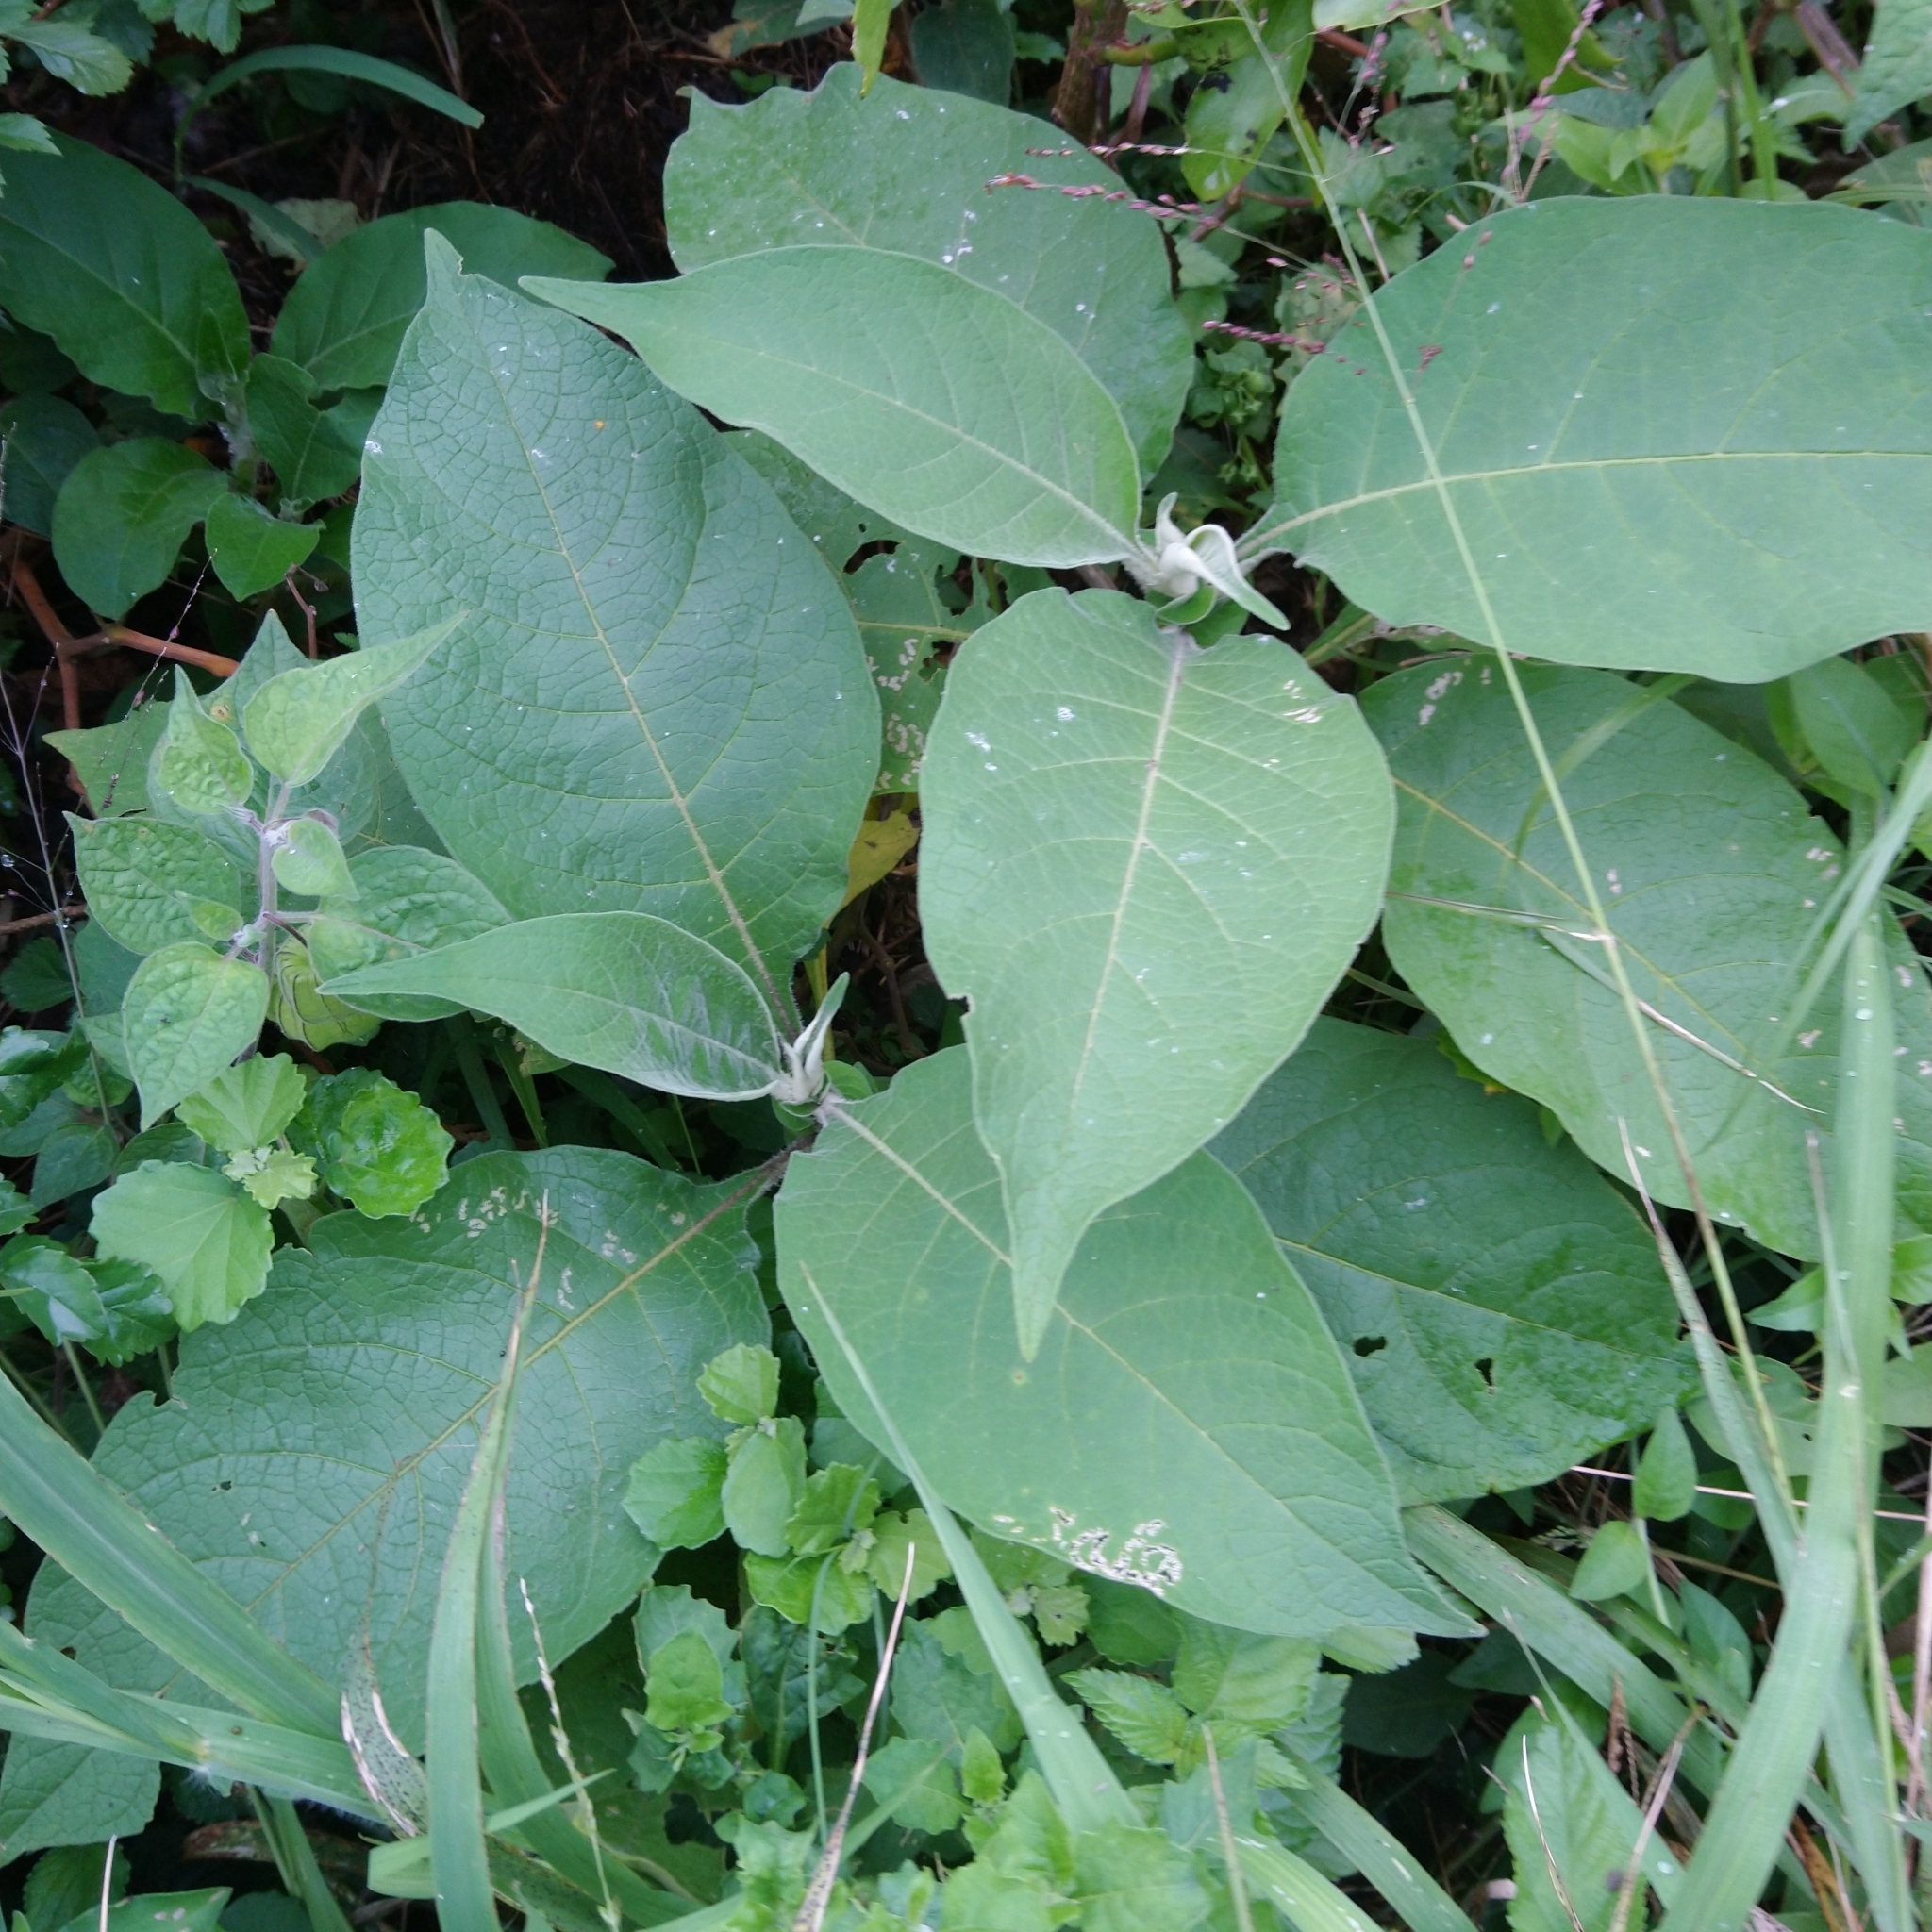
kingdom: Plantae
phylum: Tracheophyta
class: Magnoliopsida
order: Solanales
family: Solanaceae
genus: Solanum
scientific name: Solanum mauritianum
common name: Earleaf nightshade
